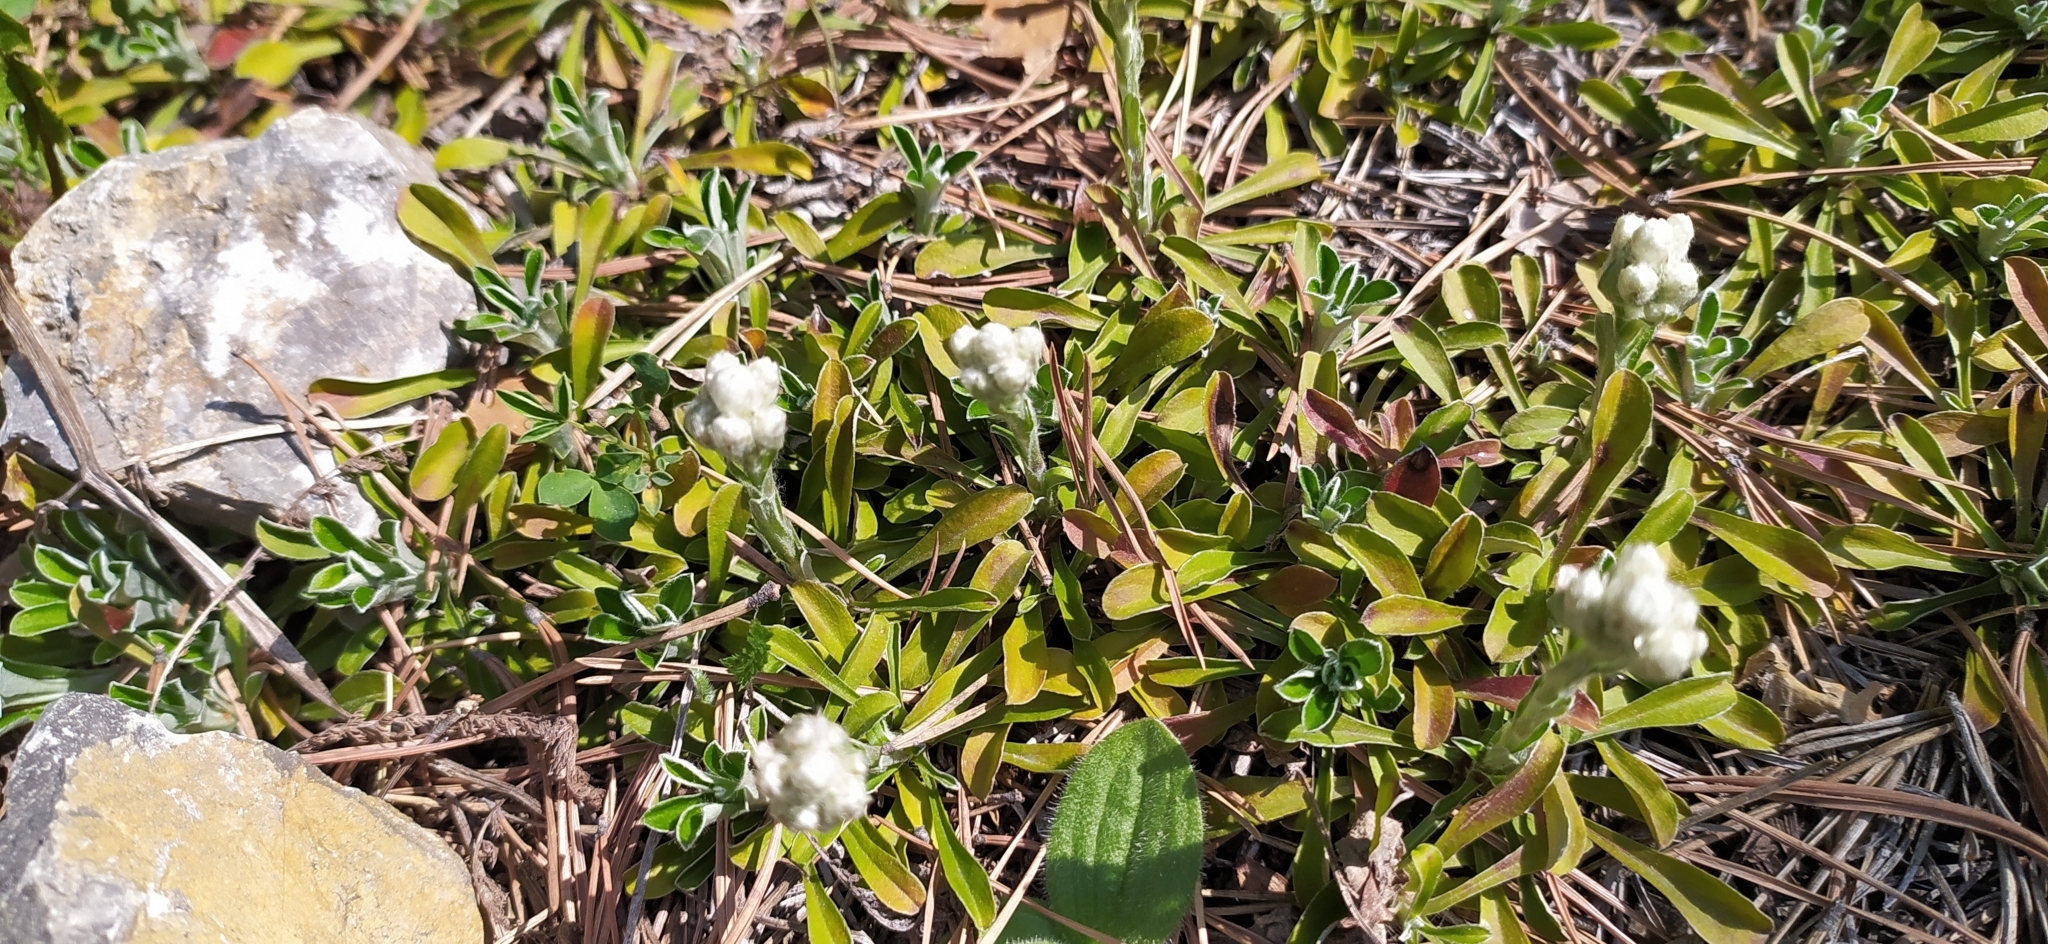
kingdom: Plantae
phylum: Tracheophyta
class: Magnoliopsida
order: Asterales
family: Asteraceae
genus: Antennaria
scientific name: Antennaria dioica
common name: Mountain everlasting
